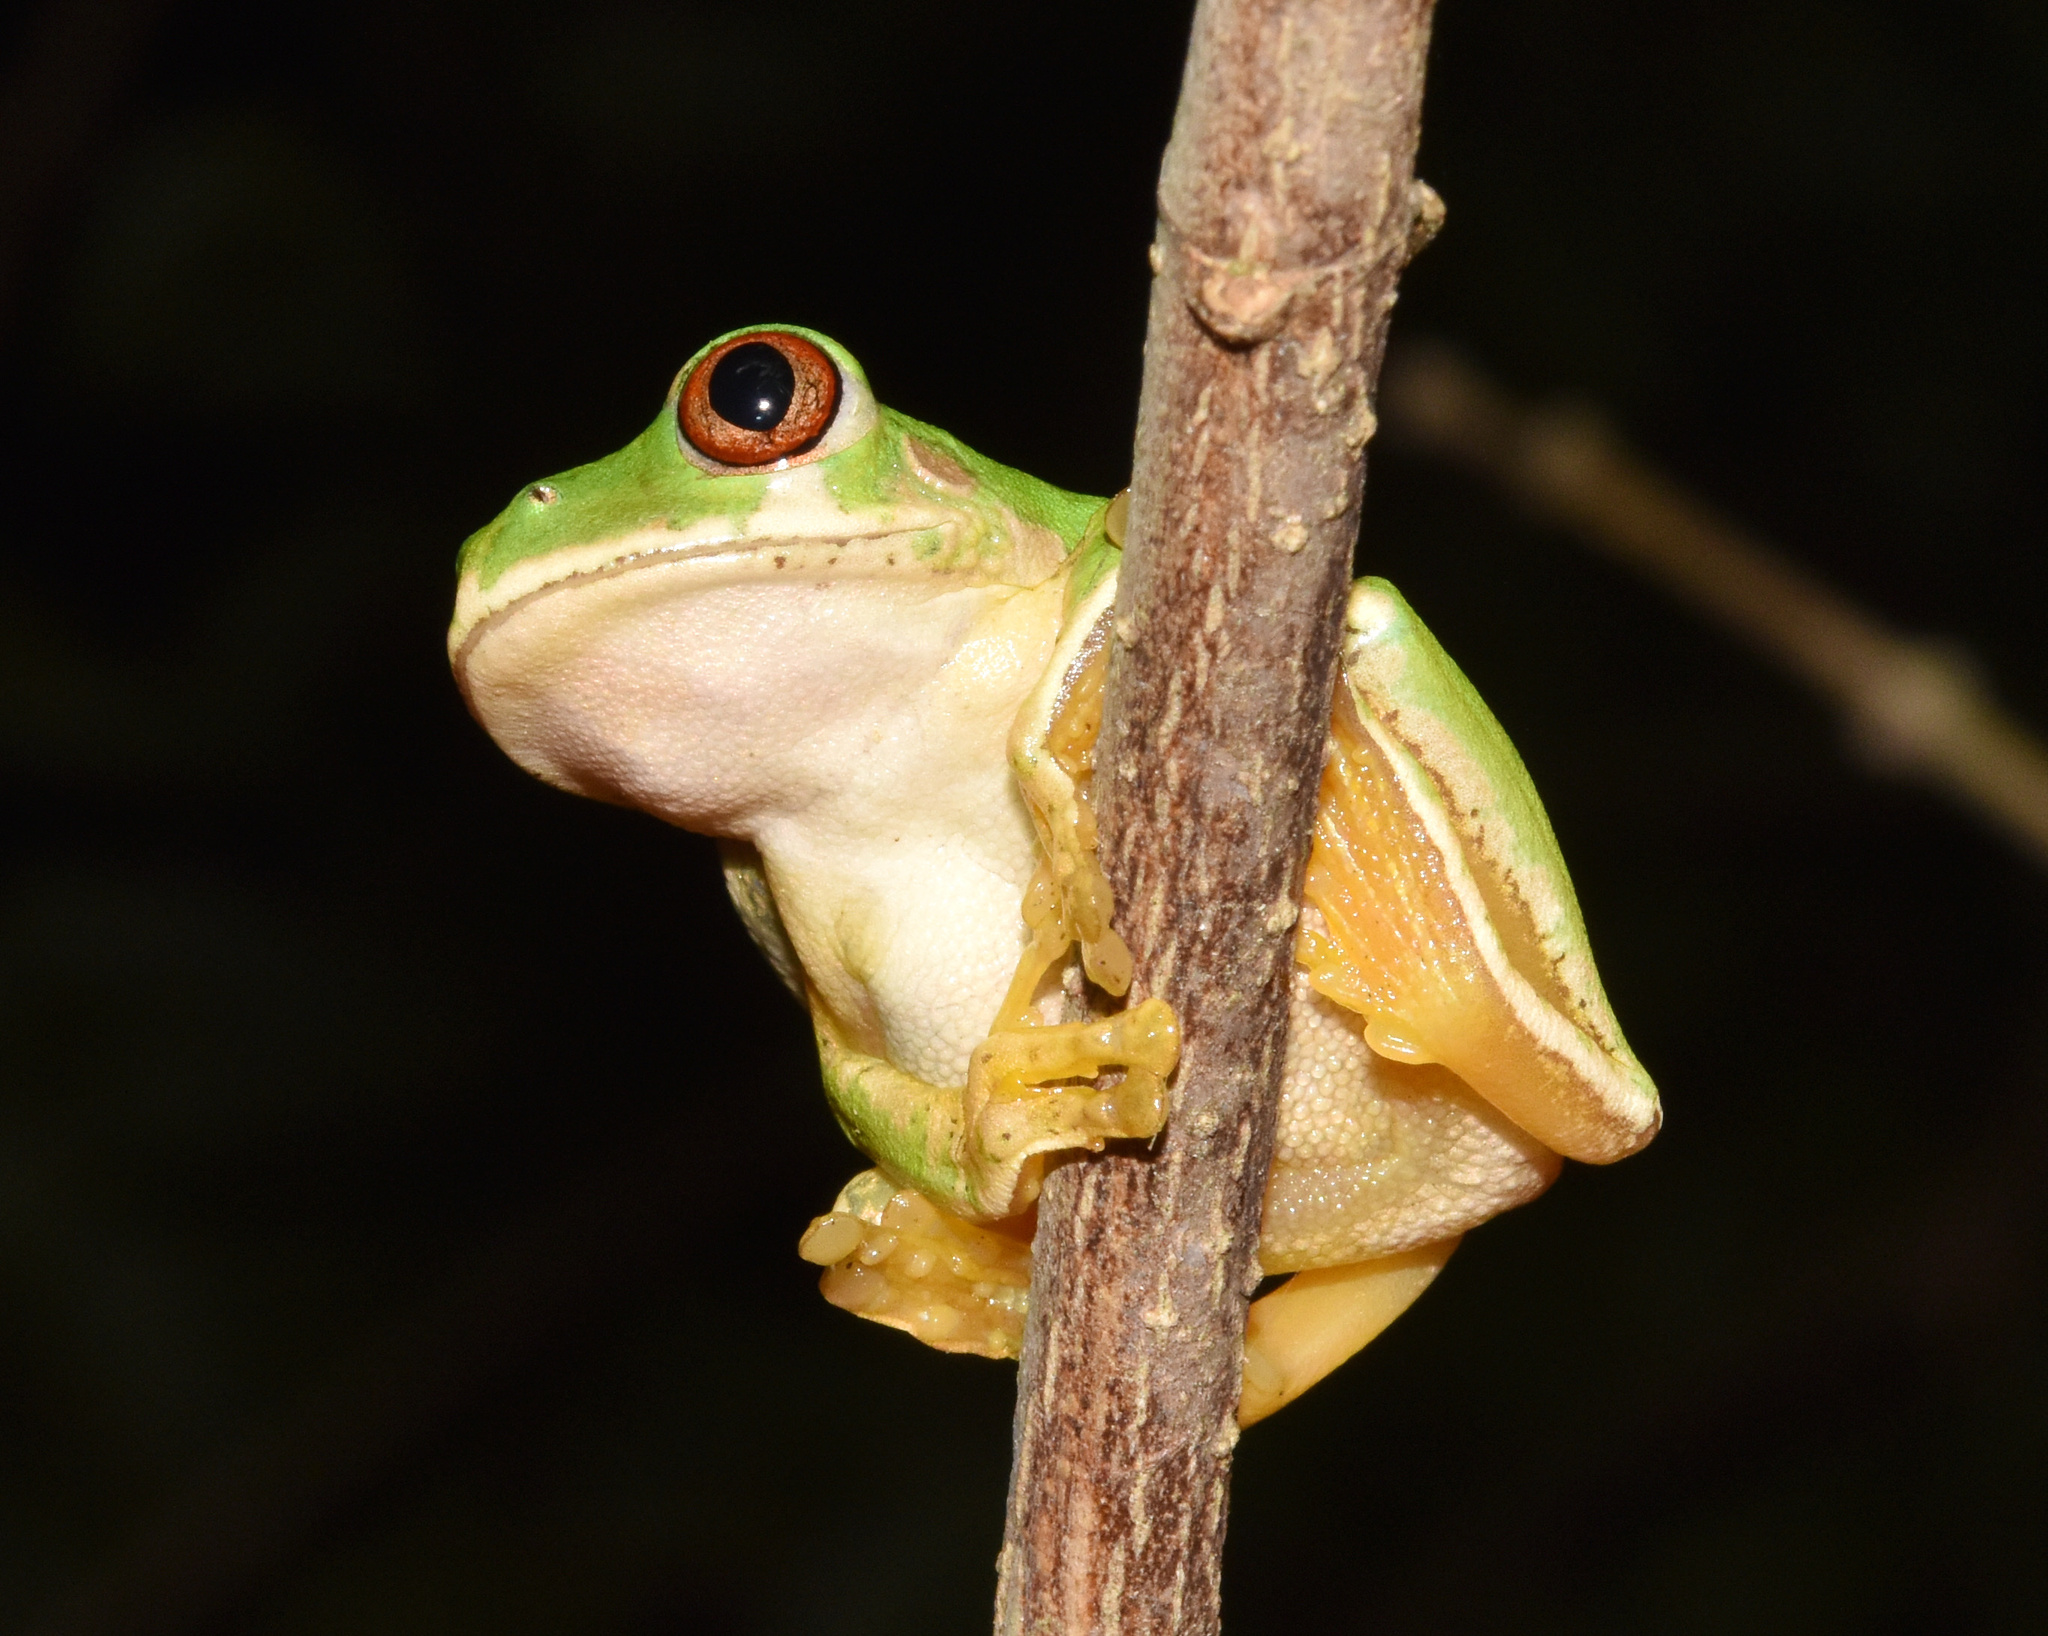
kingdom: Animalia
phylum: Chordata
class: Amphibia
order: Anura
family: Arthroleptidae
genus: Leptopelis
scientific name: Leptopelis natalensis
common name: Natal tree frog
